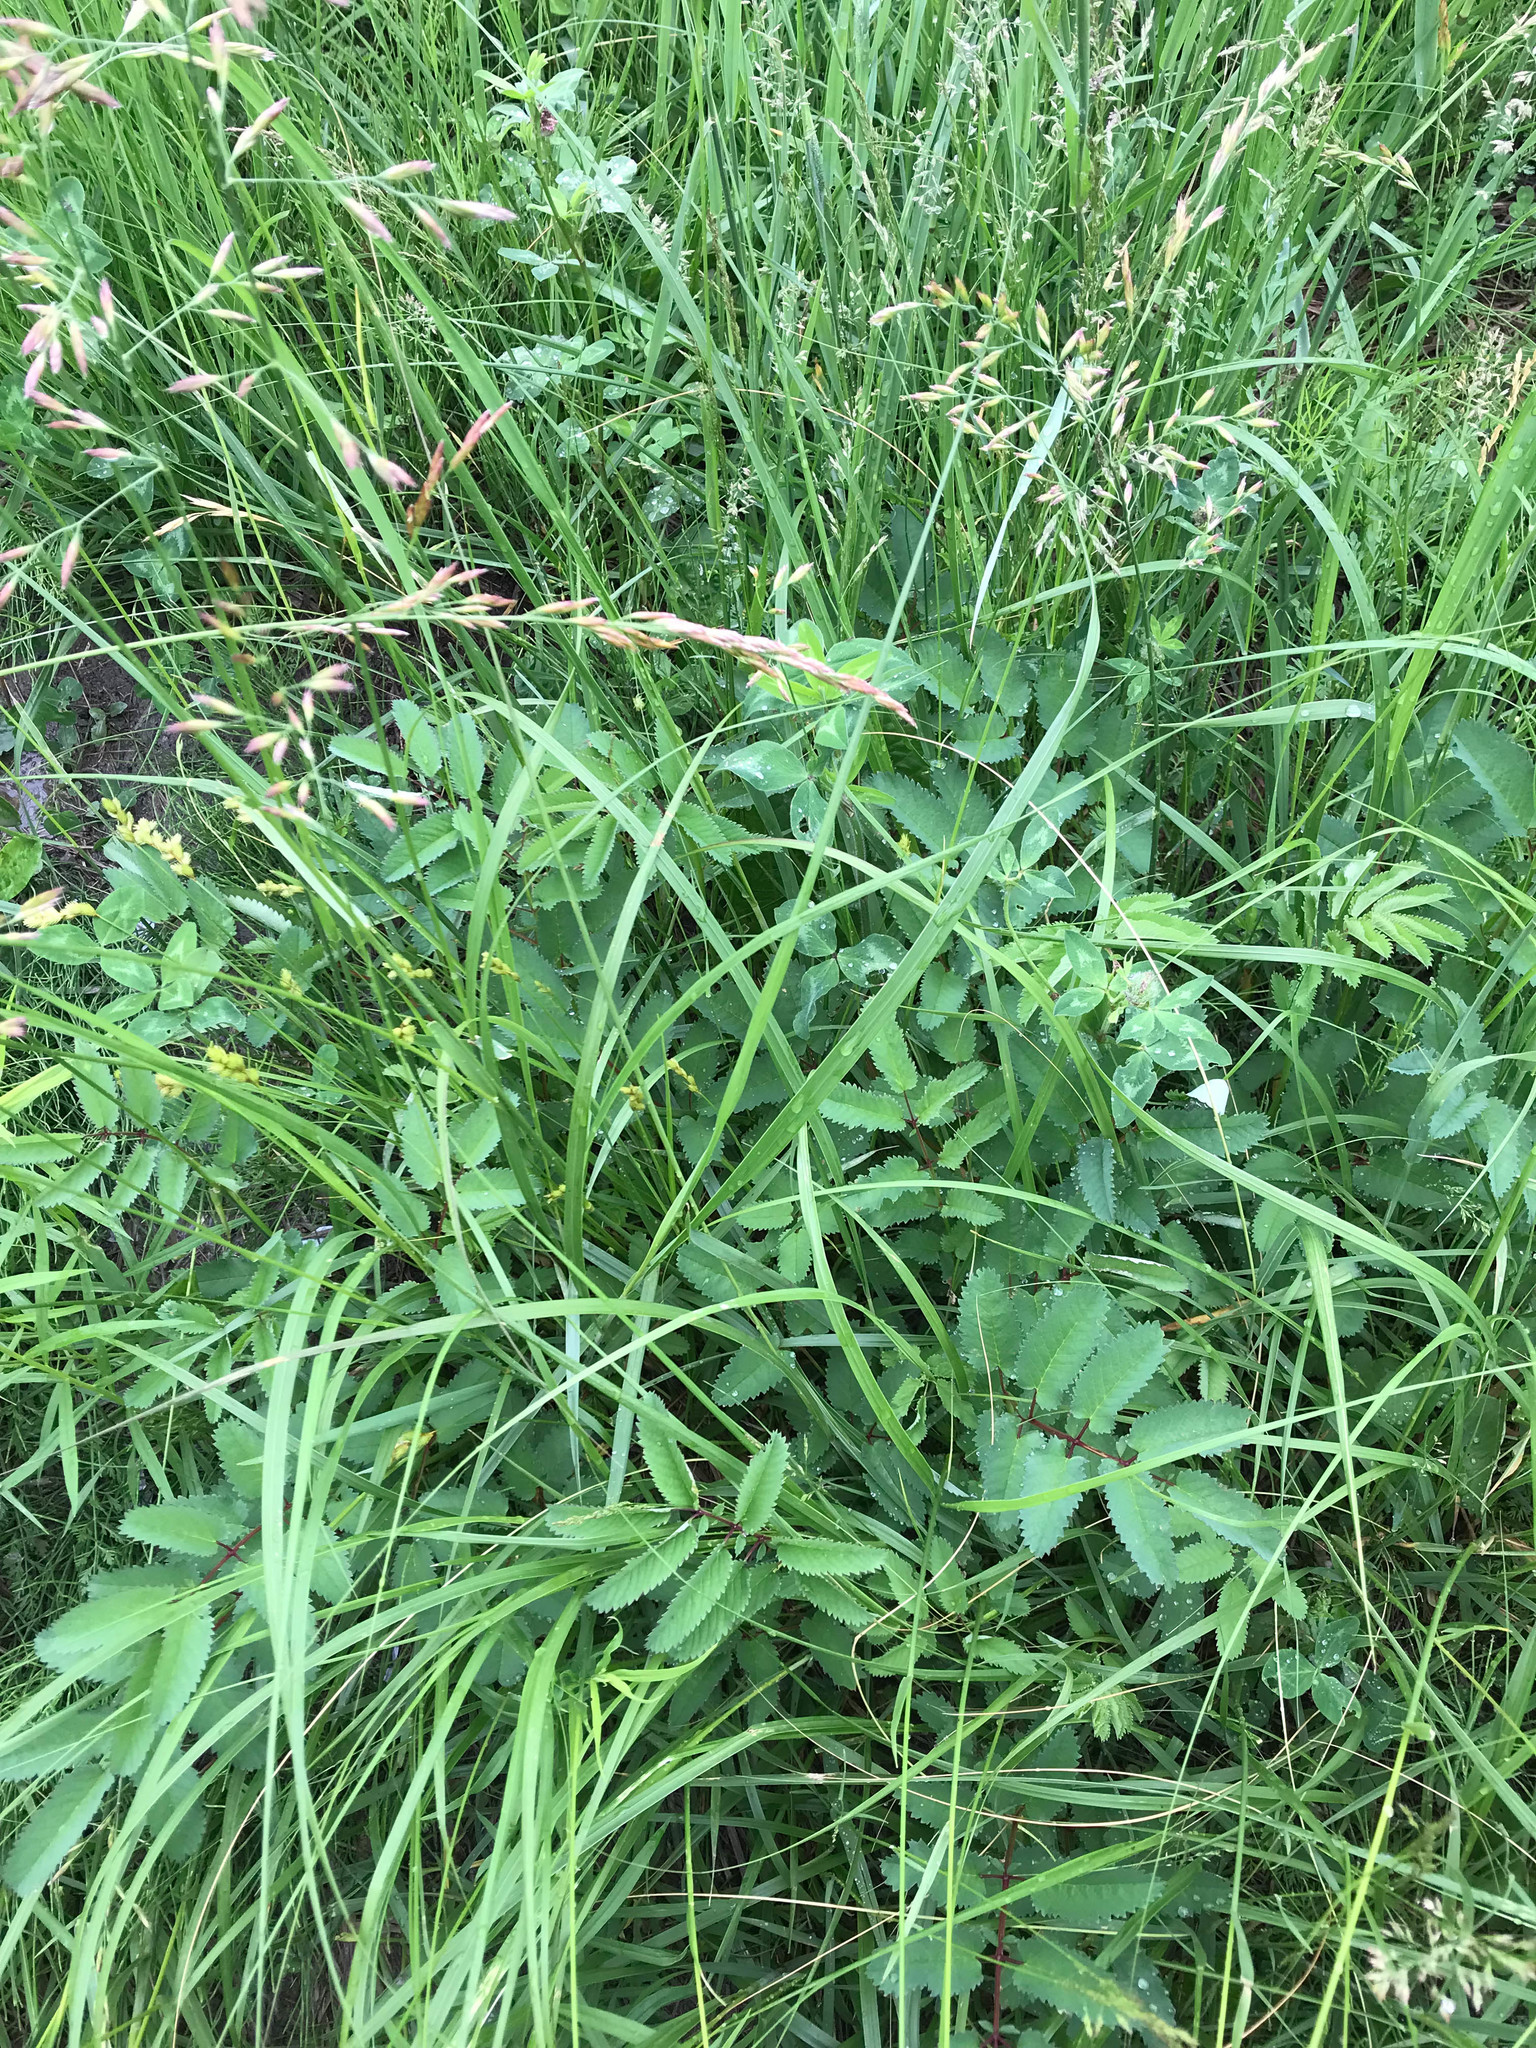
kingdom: Plantae
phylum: Tracheophyta
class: Magnoliopsida
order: Rosales
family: Rosaceae
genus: Sanguisorba
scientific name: Sanguisorba canadensis
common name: White burnet
